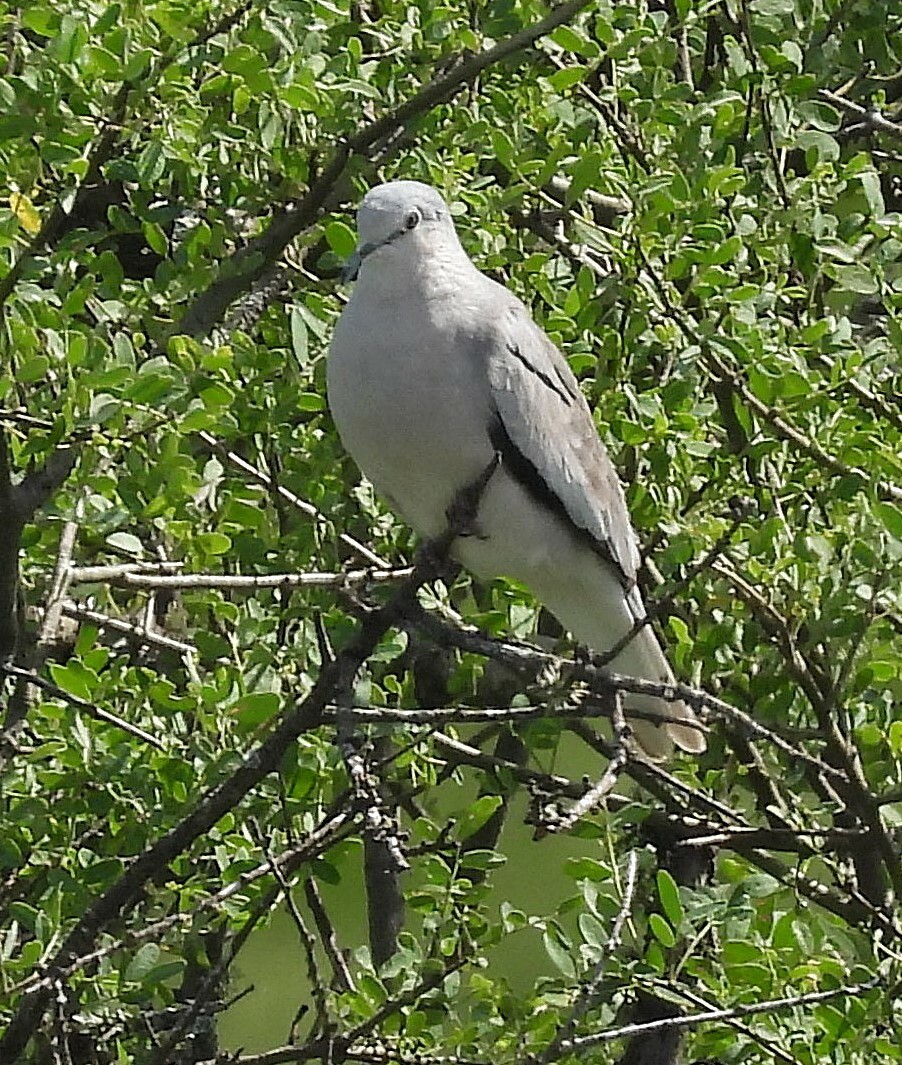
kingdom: Animalia
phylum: Chordata
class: Aves
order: Columbiformes
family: Columbidae
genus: Columbina
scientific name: Columbina picui
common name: Picui ground dove
